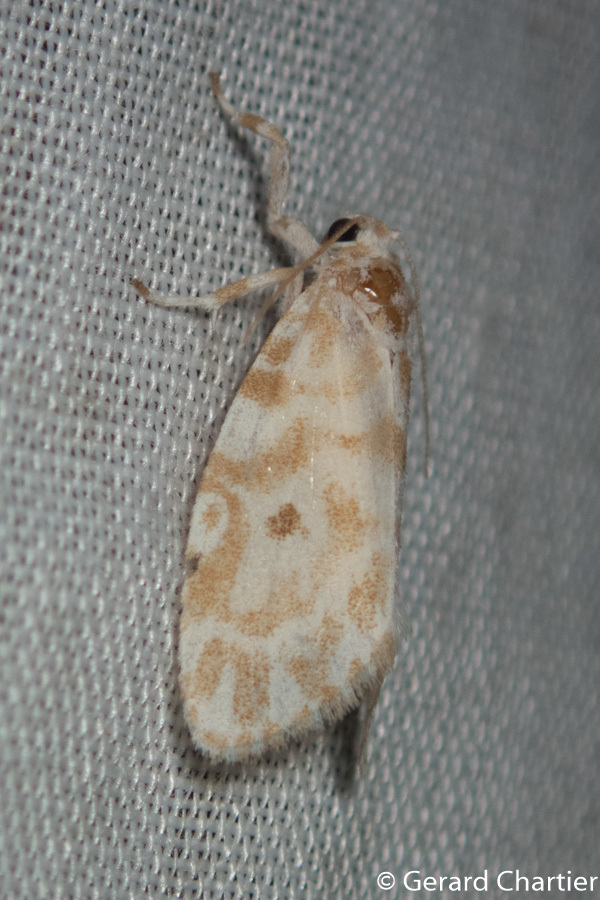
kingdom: Animalia
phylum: Arthropoda
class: Insecta
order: Lepidoptera
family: Erebidae
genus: Cabarda
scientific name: Cabarda sequens
